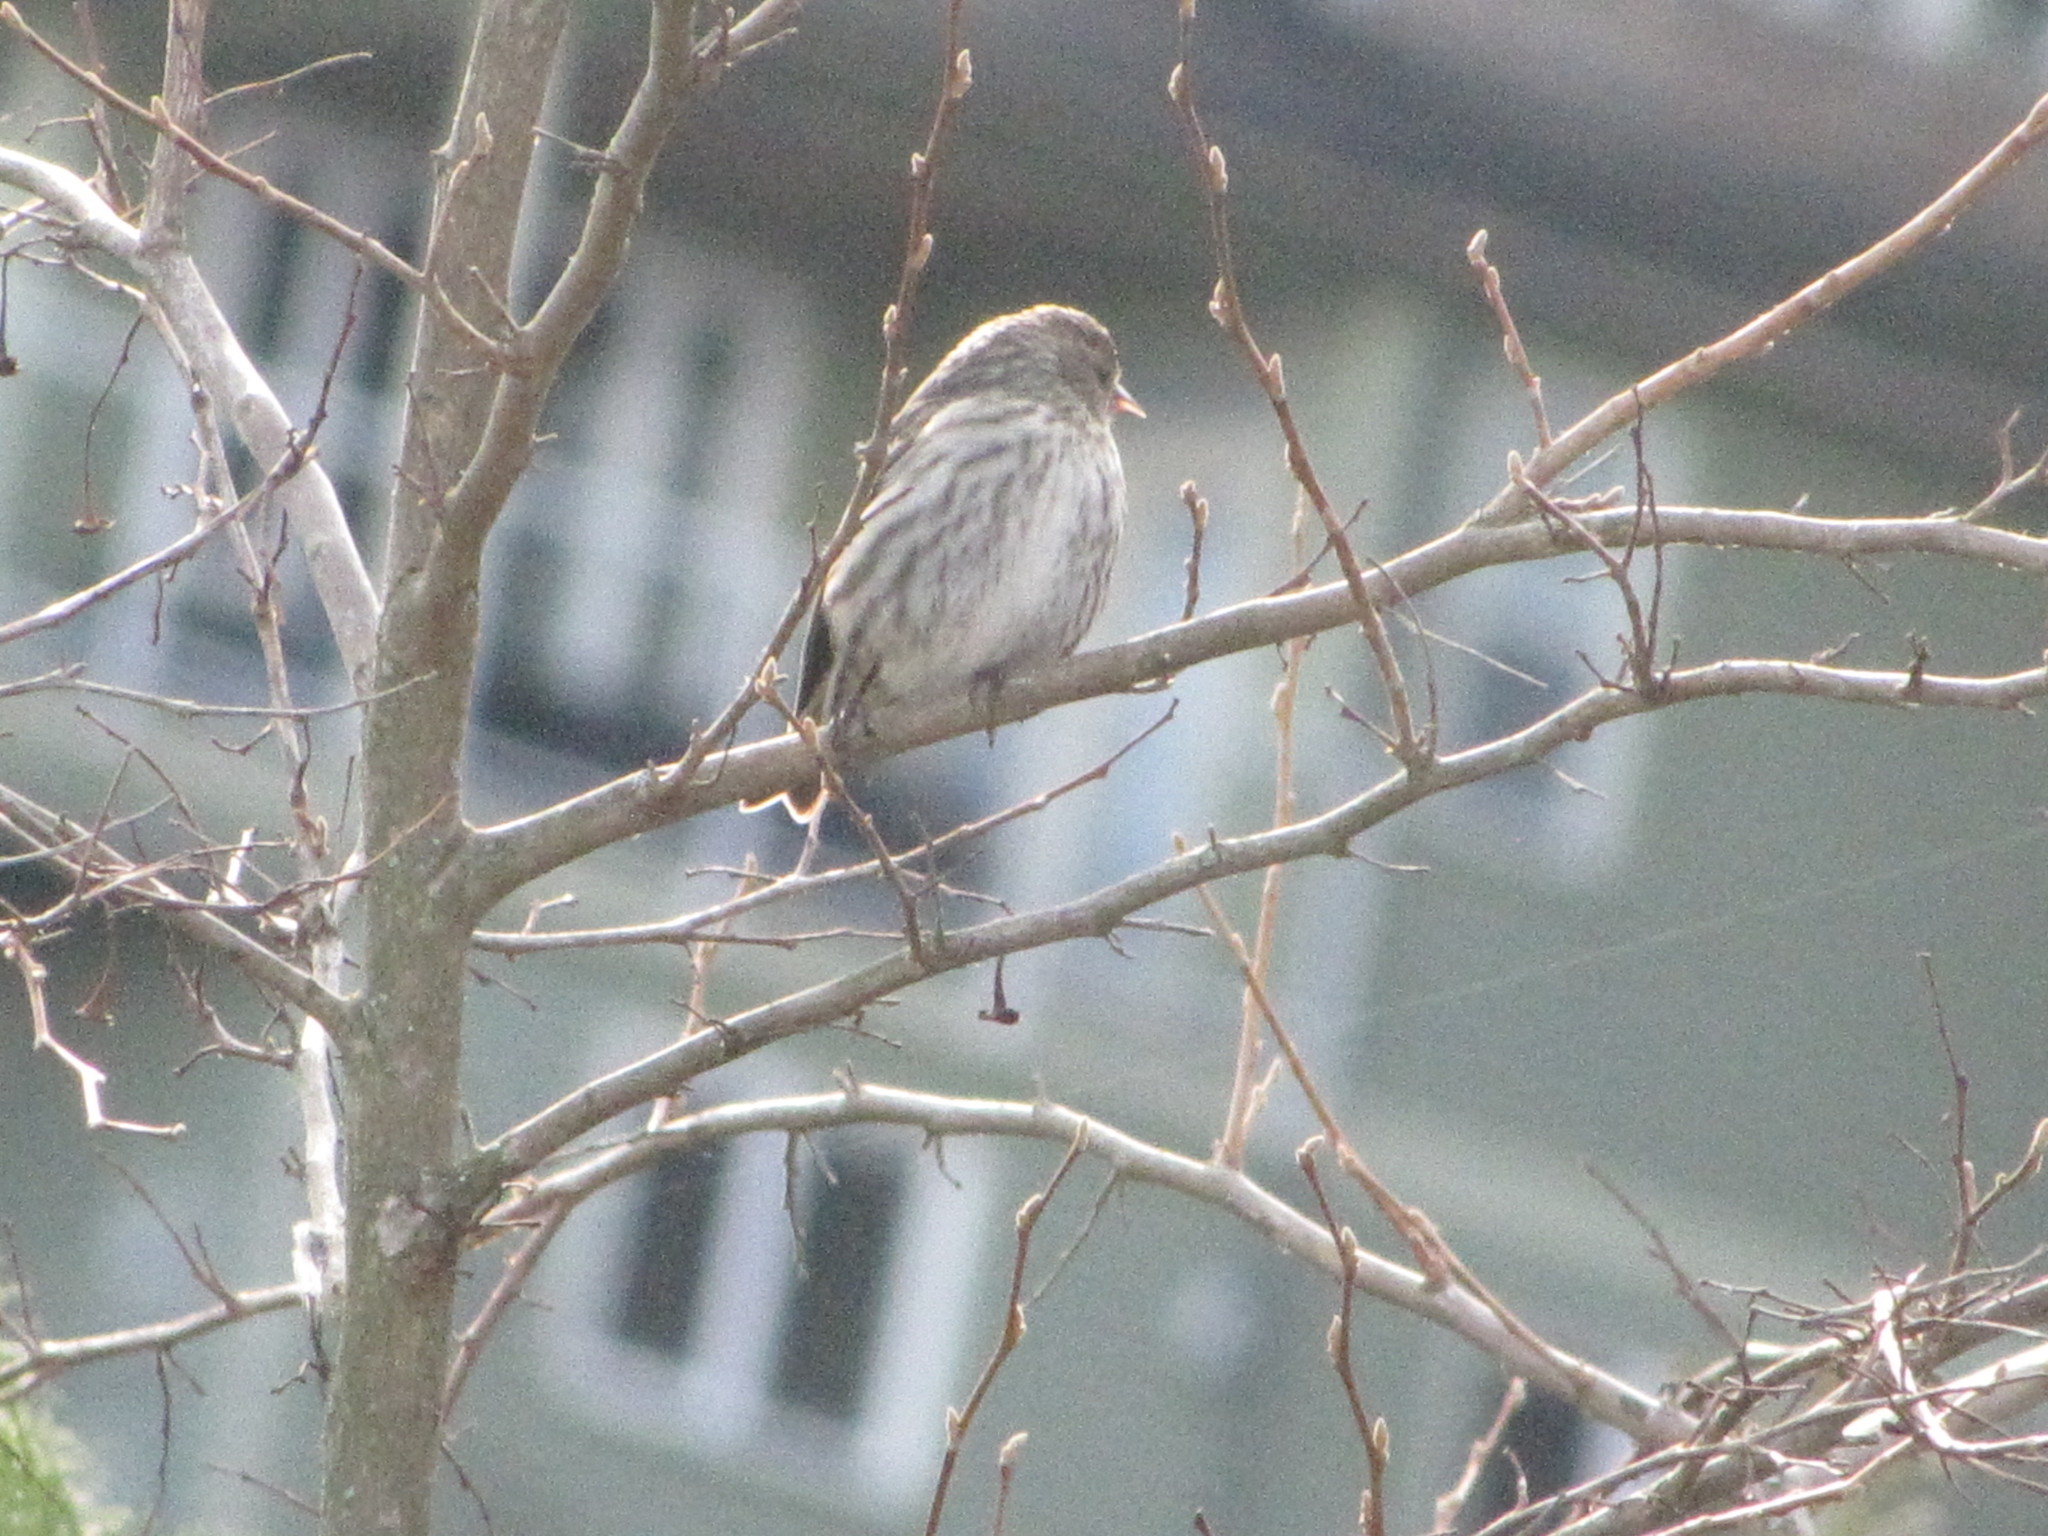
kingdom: Animalia
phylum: Chordata
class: Aves
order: Passeriformes
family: Fringillidae
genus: Spinus
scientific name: Spinus pinus
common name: Pine siskin
